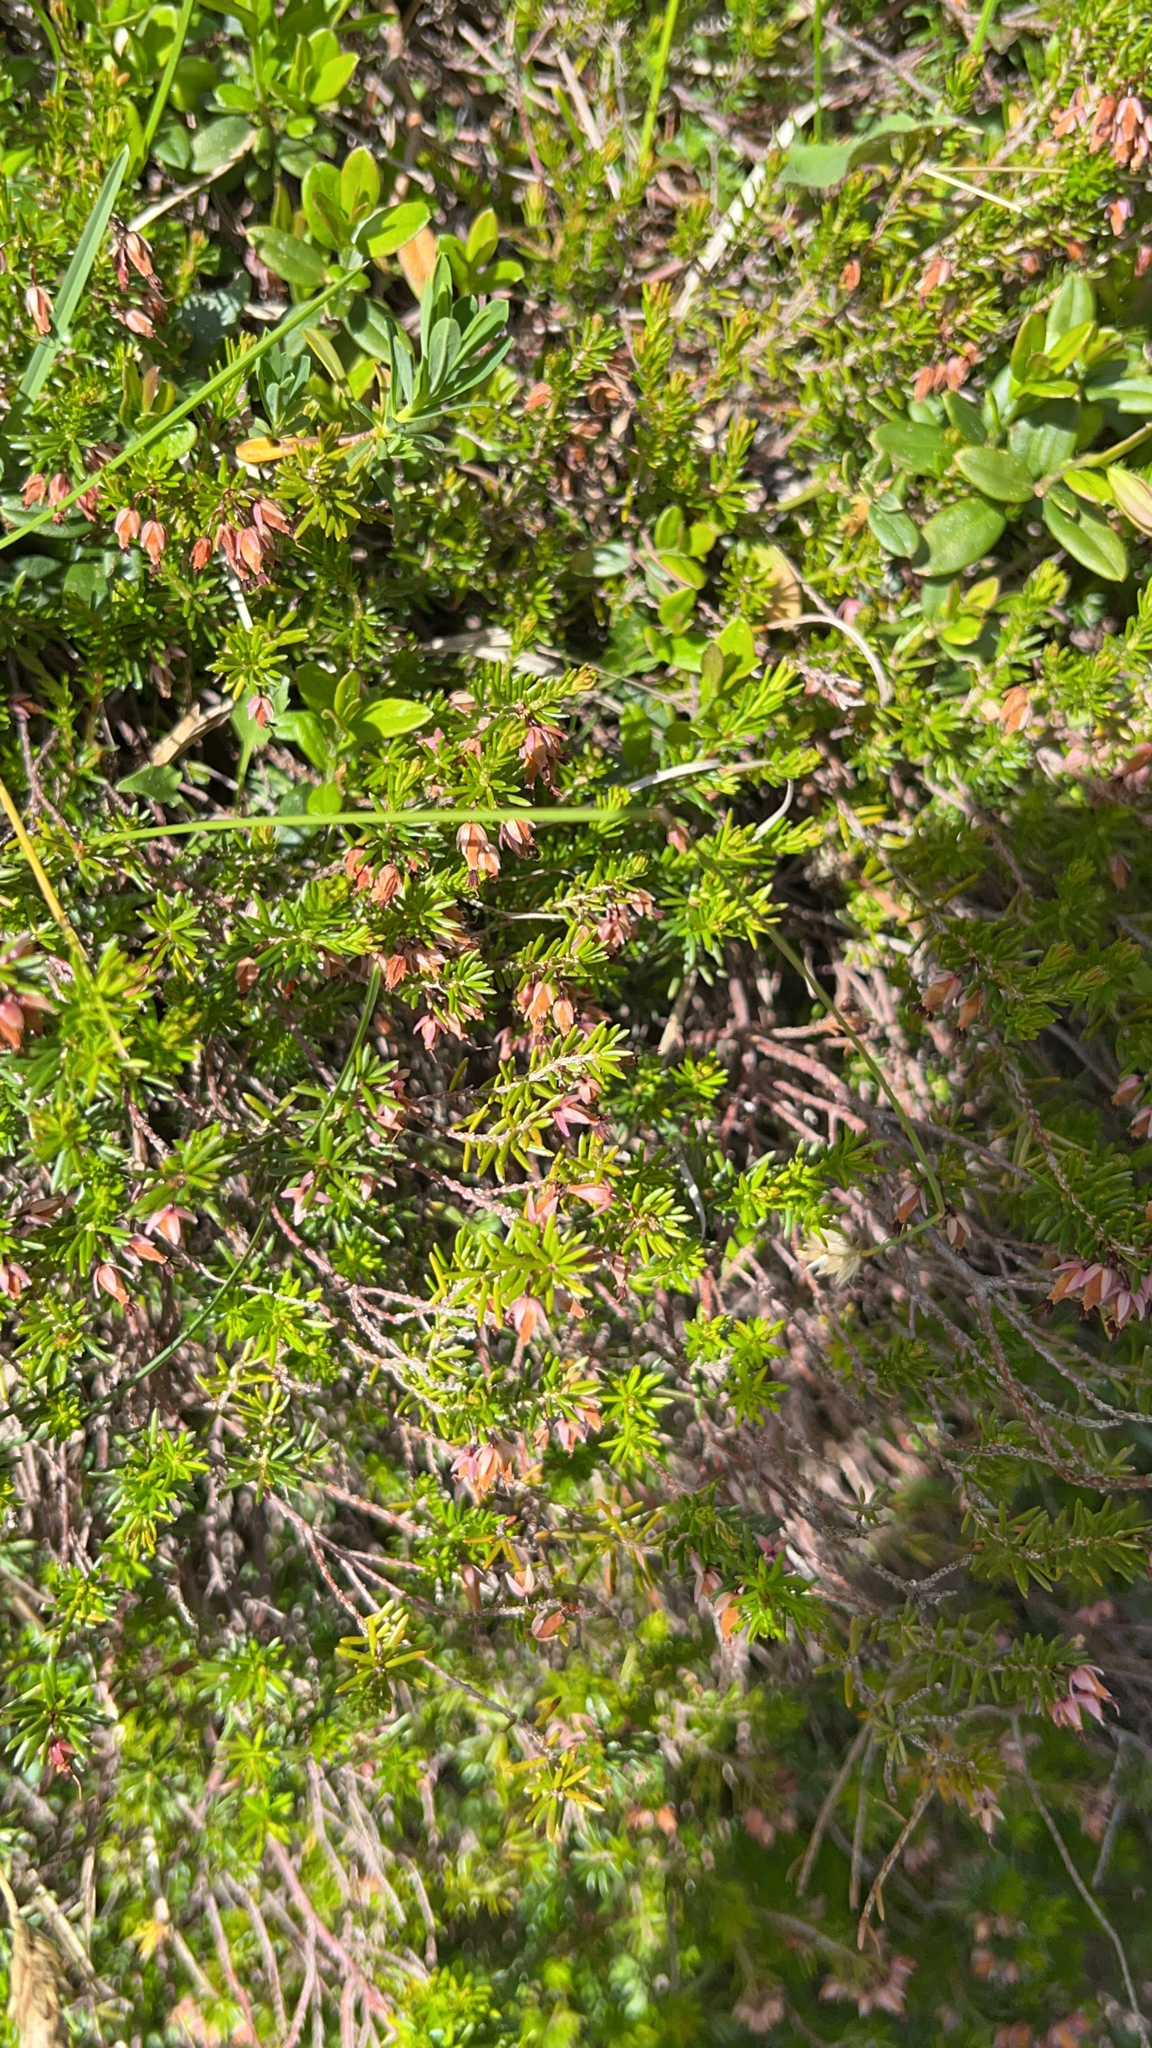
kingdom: Plantae
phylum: Tracheophyta
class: Magnoliopsida
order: Ericales
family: Ericaceae
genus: Erica
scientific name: Erica carnea
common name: Winter heath
